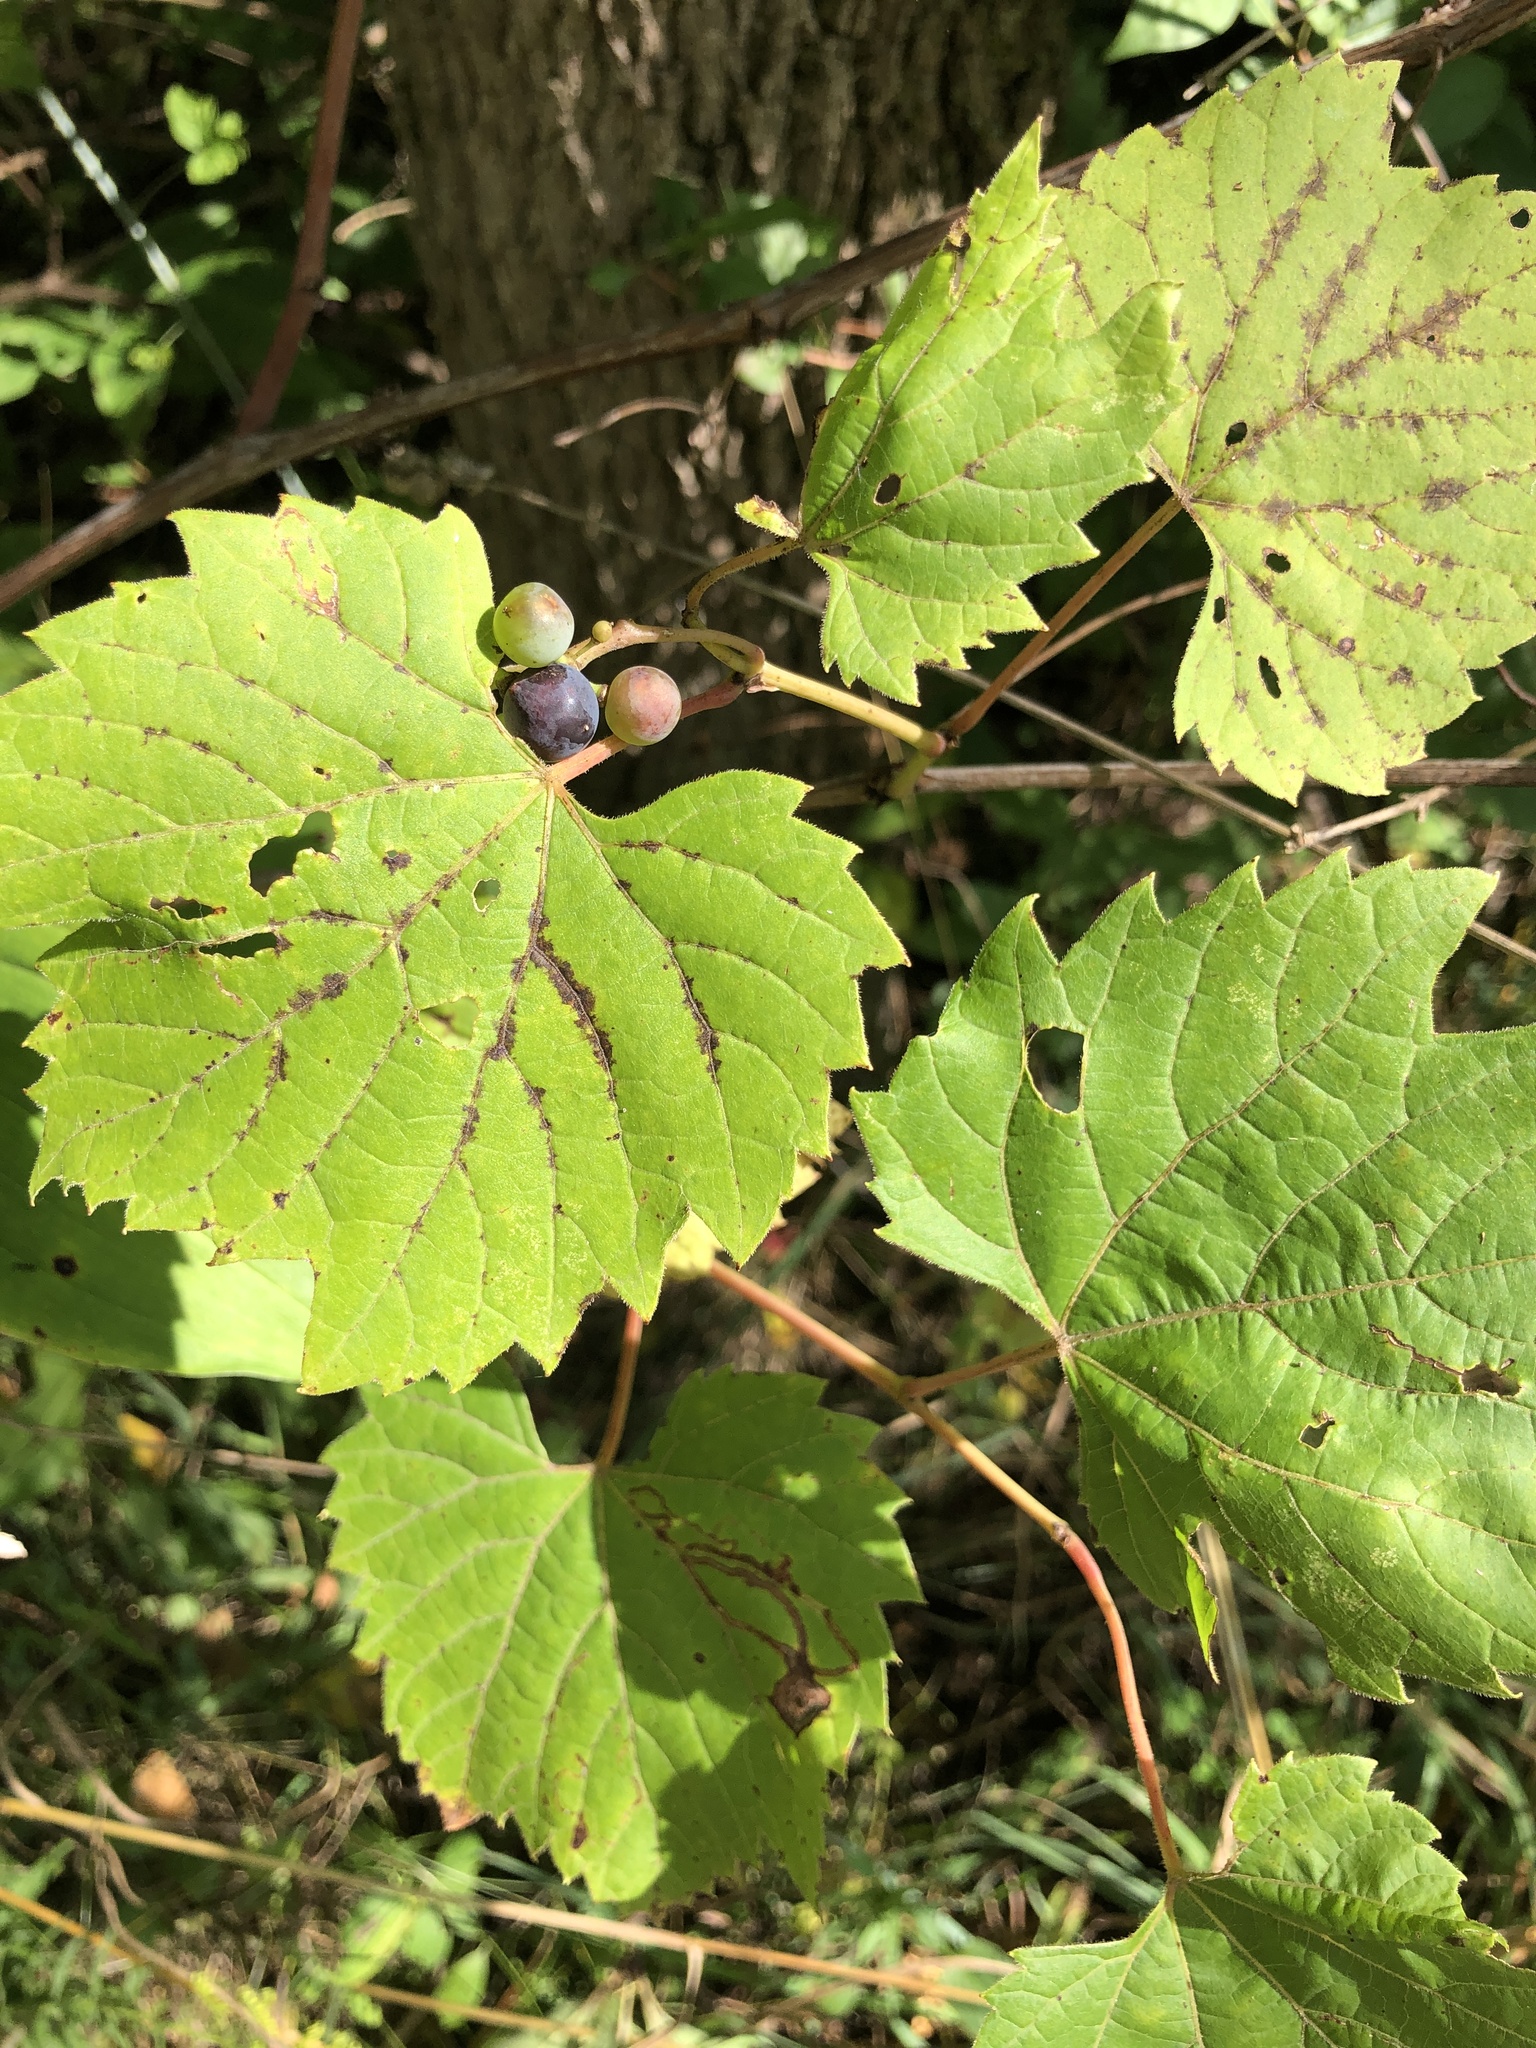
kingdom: Plantae
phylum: Tracheophyta
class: Magnoliopsida
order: Vitales
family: Vitaceae
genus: Vitis
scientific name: Vitis riparia
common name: Frost grape
